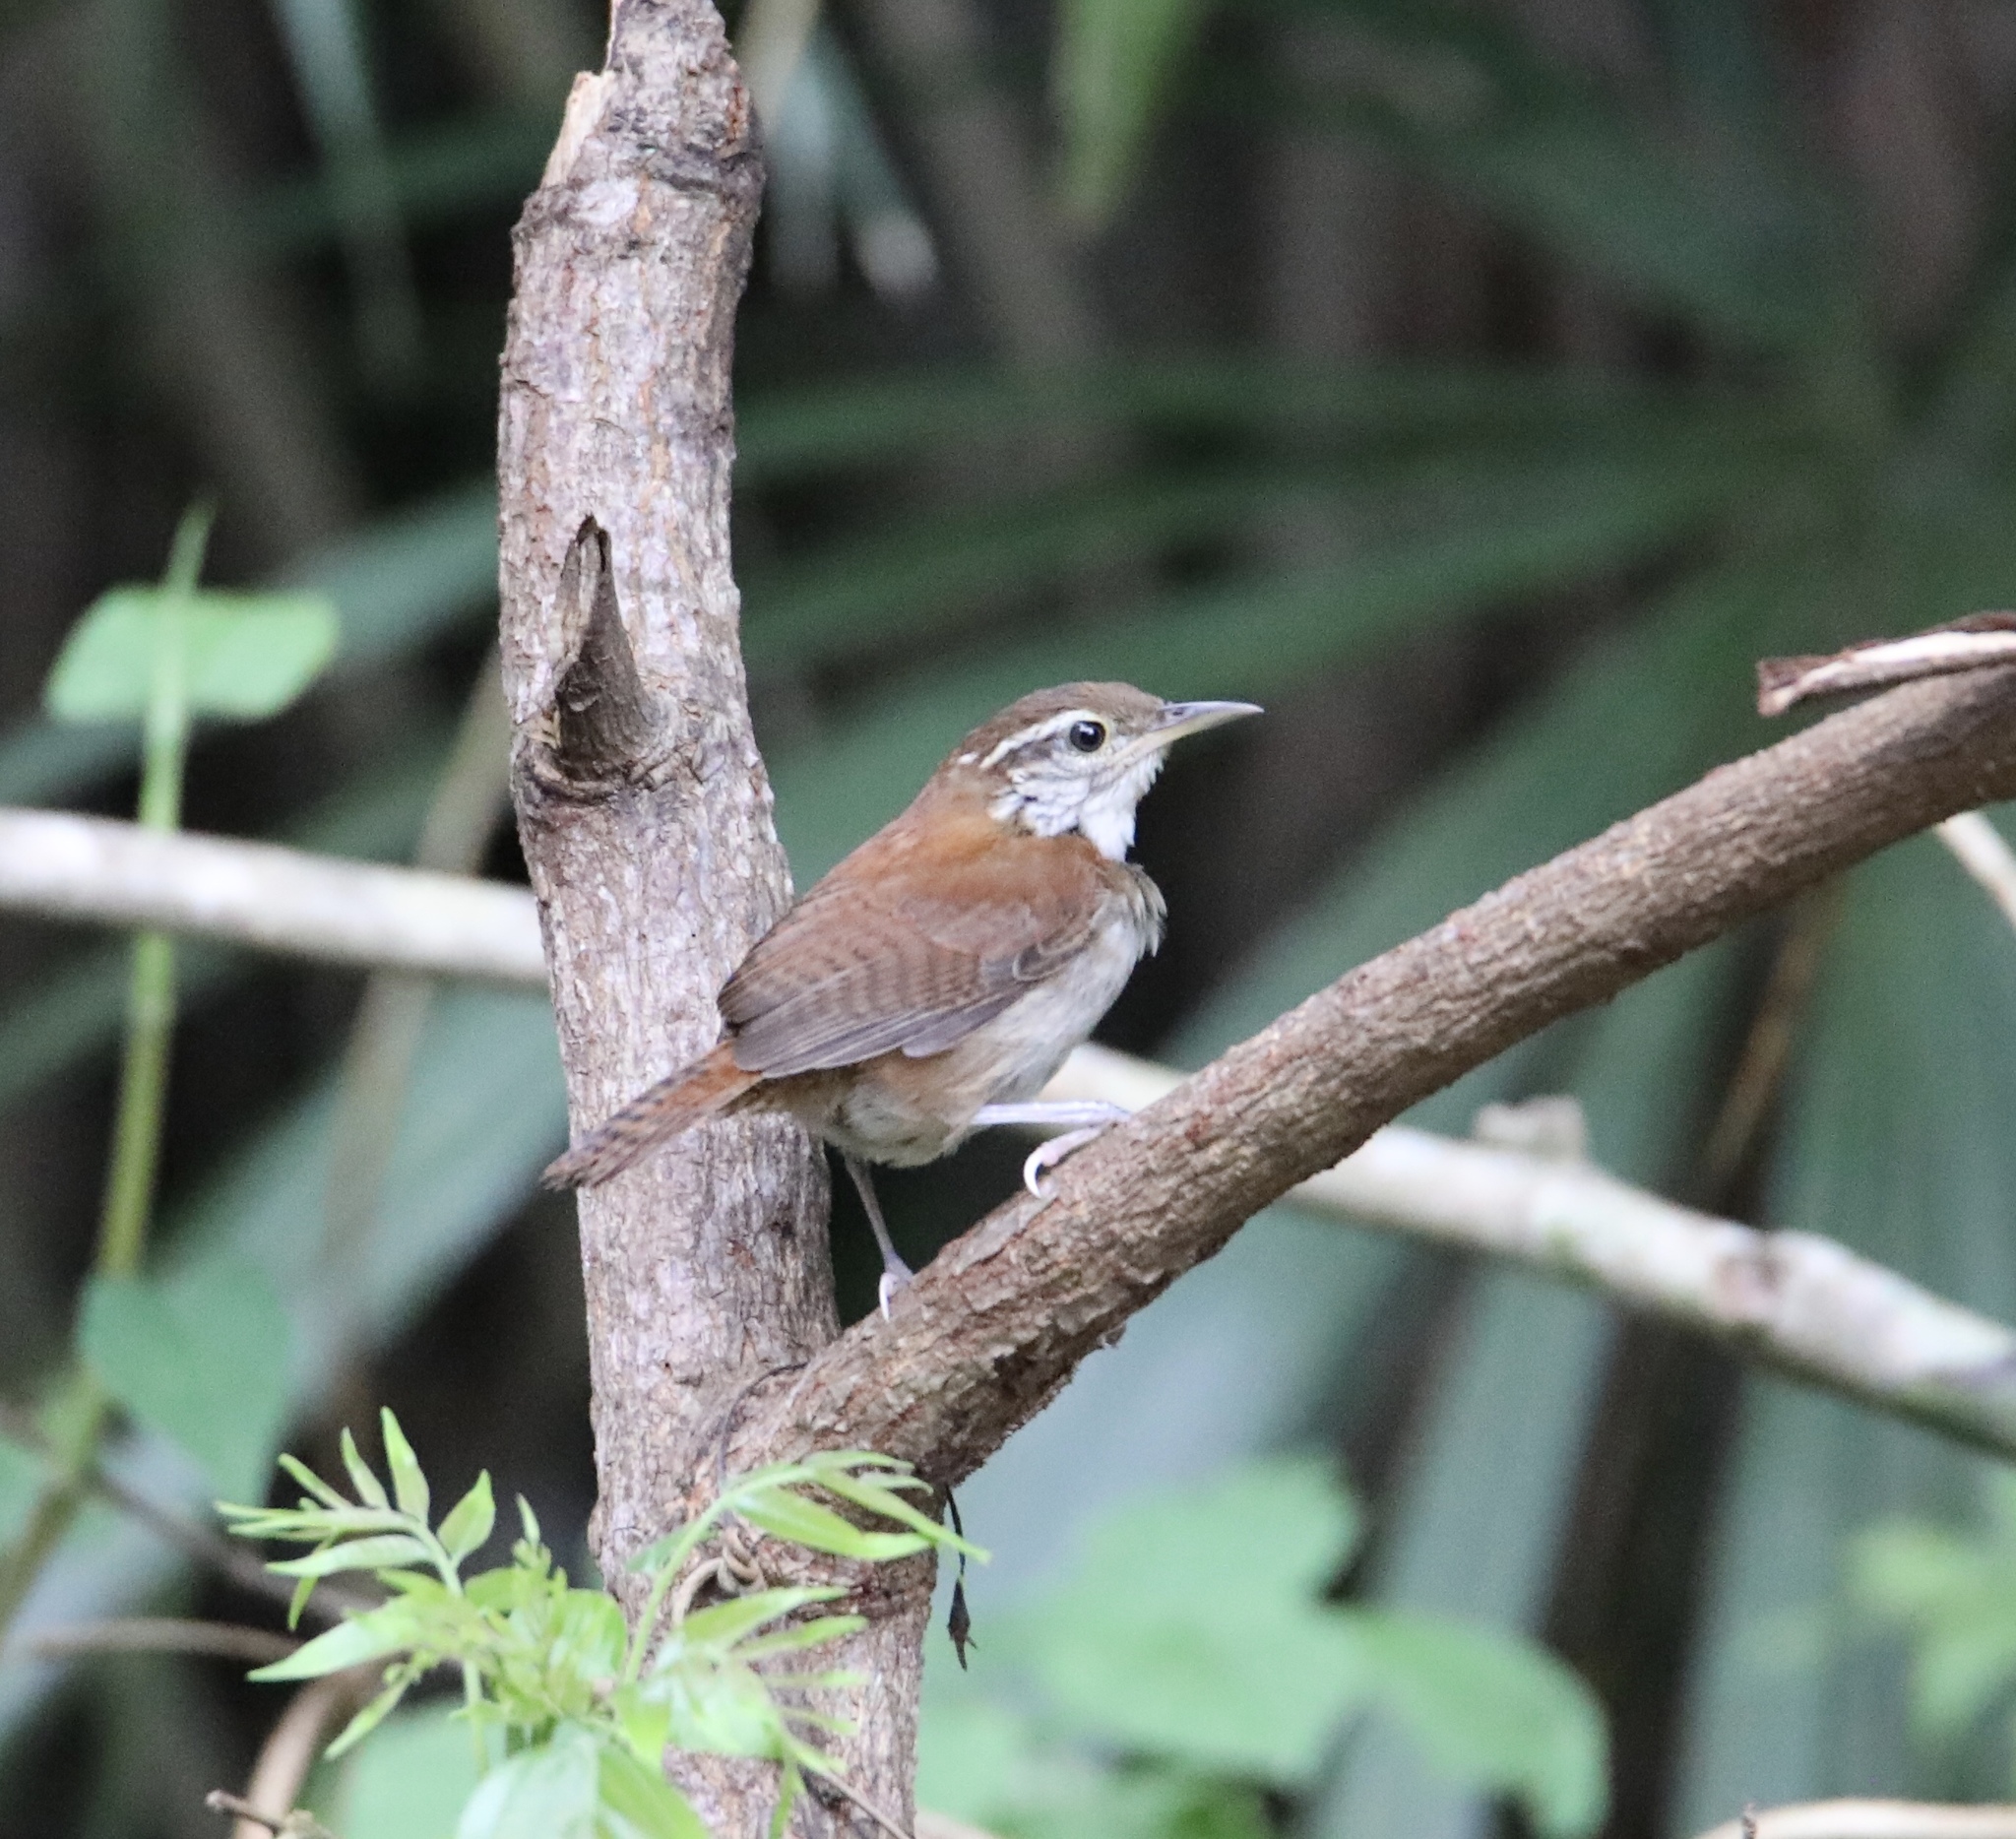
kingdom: Animalia
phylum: Chordata
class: Aves
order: Passeriformes
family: Troglodytidae
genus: Thryophilus
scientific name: Thryophilus rufalbus
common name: Rufous-and-white wren
